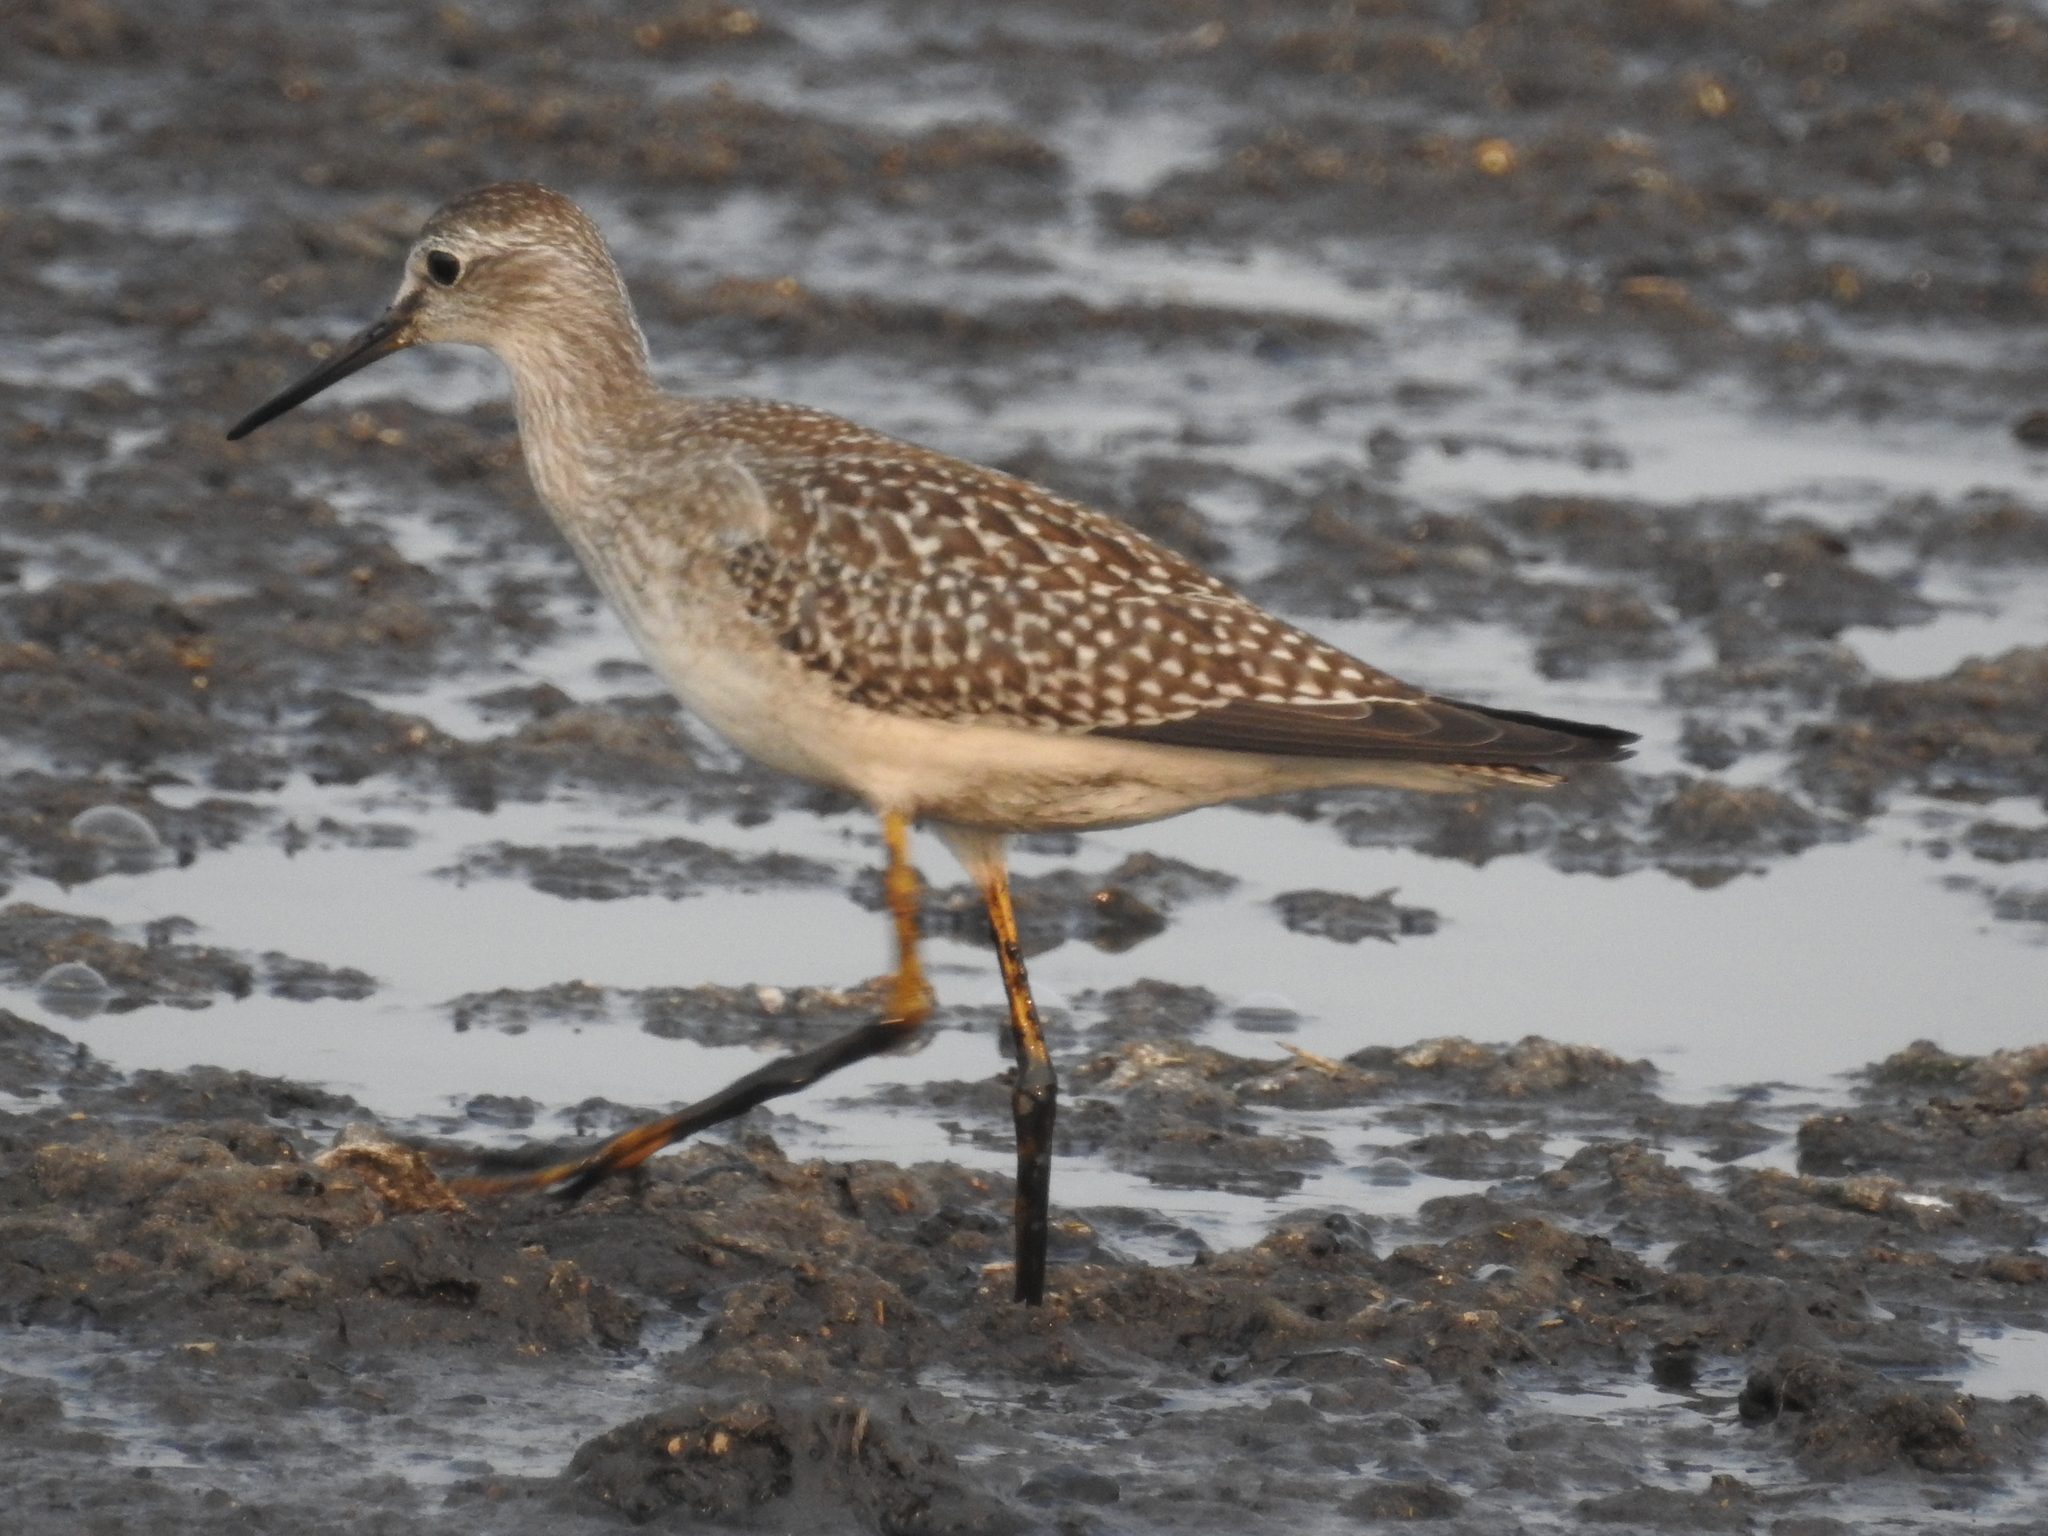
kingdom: Animalia
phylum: Chordata
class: Aves
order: Charadriiformes
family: Scolopacidae
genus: Tringa
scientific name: Tringa flavipes
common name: Lesser yellowlegs
